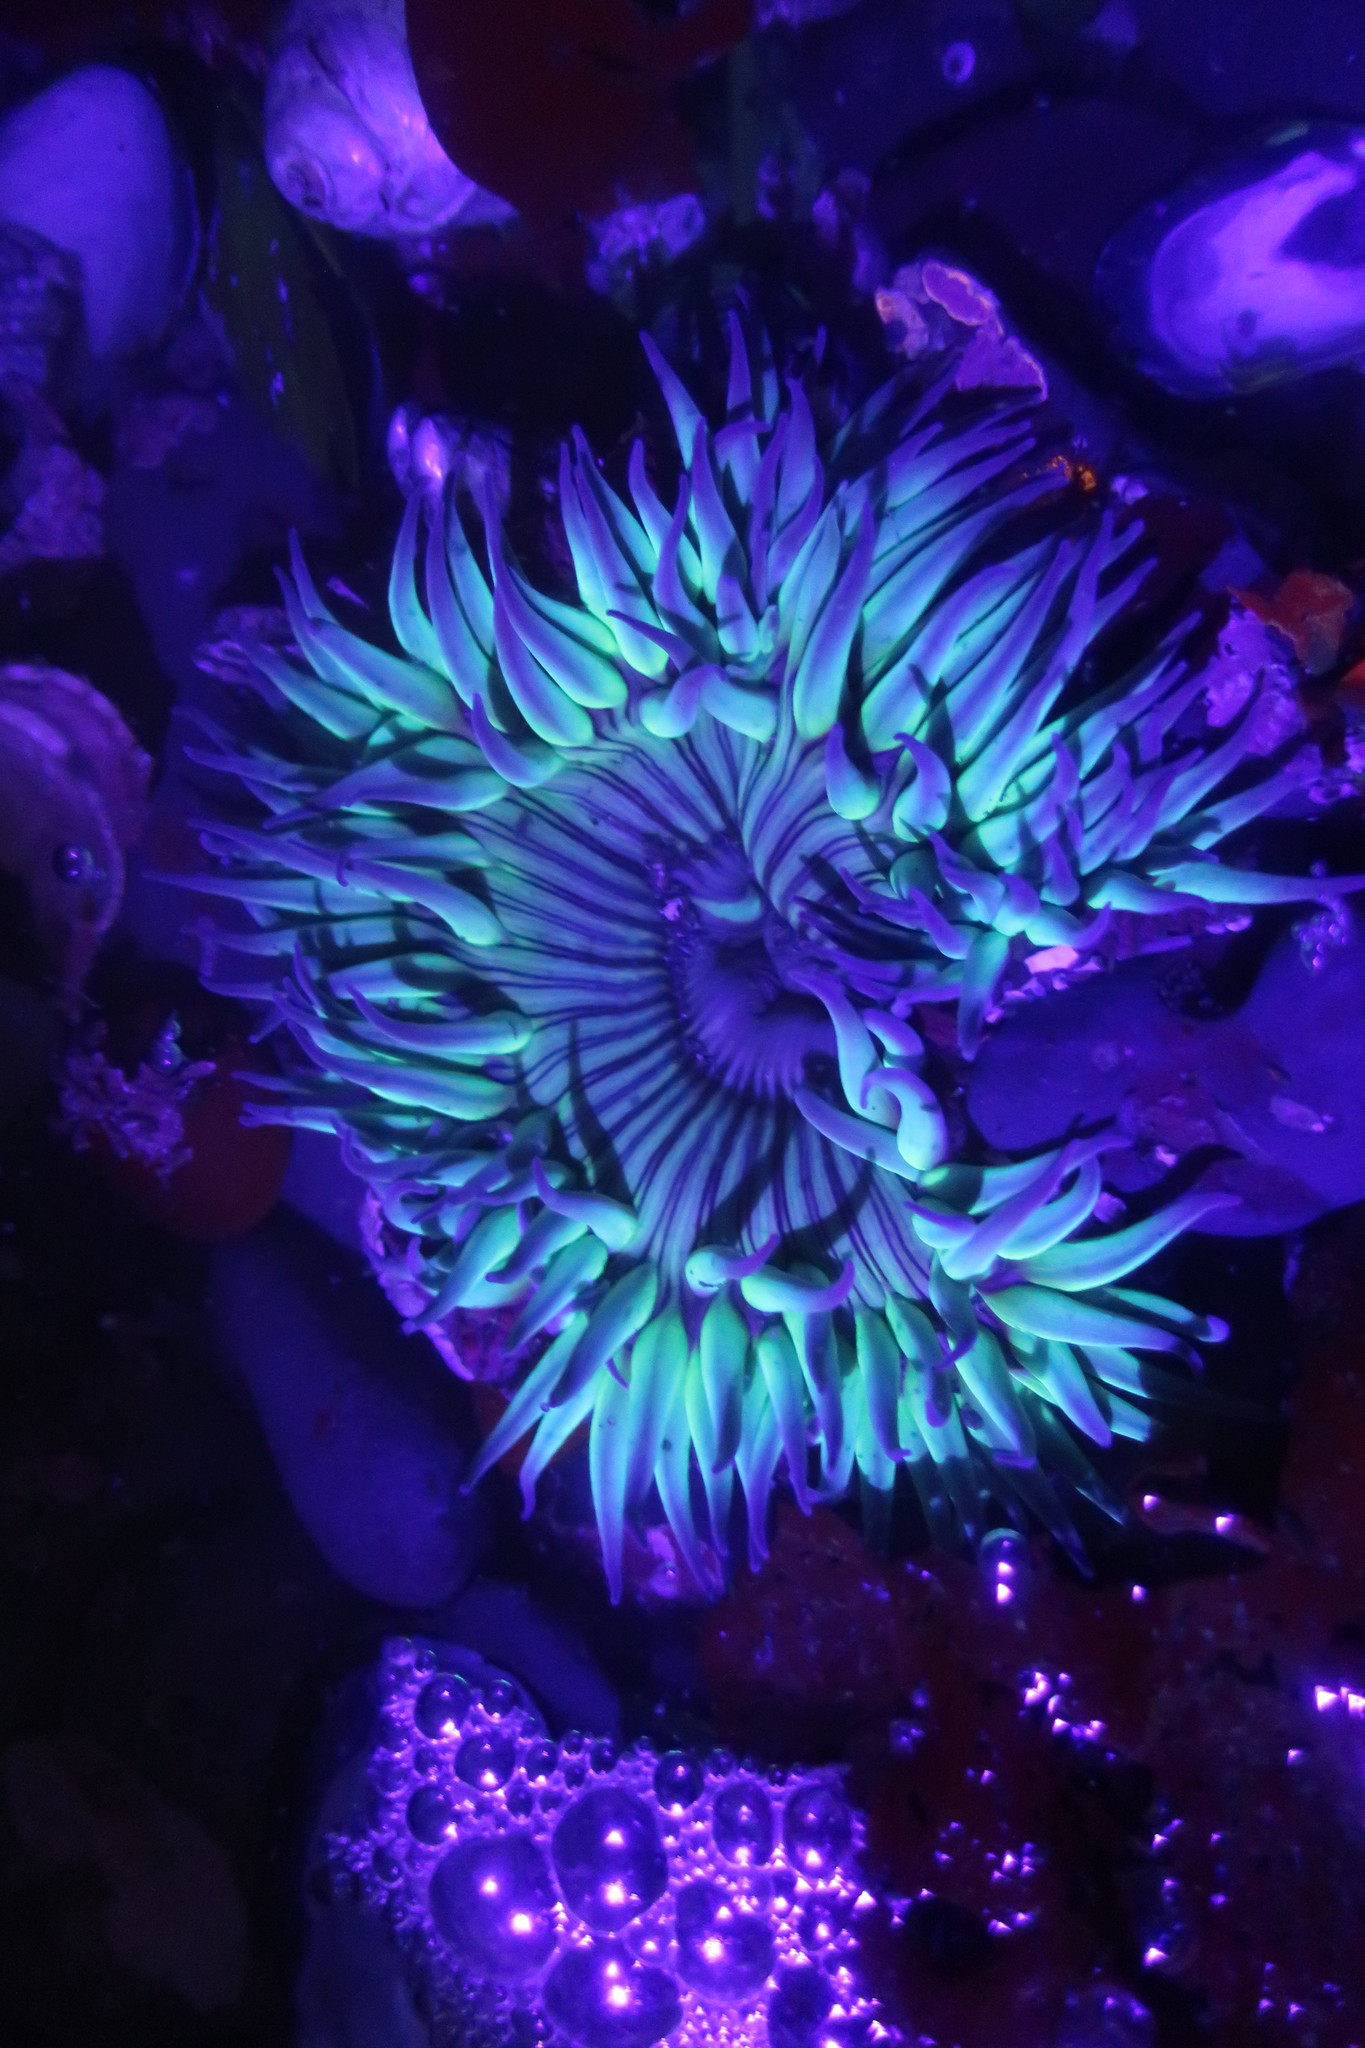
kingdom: Animalia
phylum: Cnidaria
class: Anthozoa
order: Actiniaria
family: Actiniidae
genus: Anthopleura
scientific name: Anthopleura sola
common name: Sun anemone
